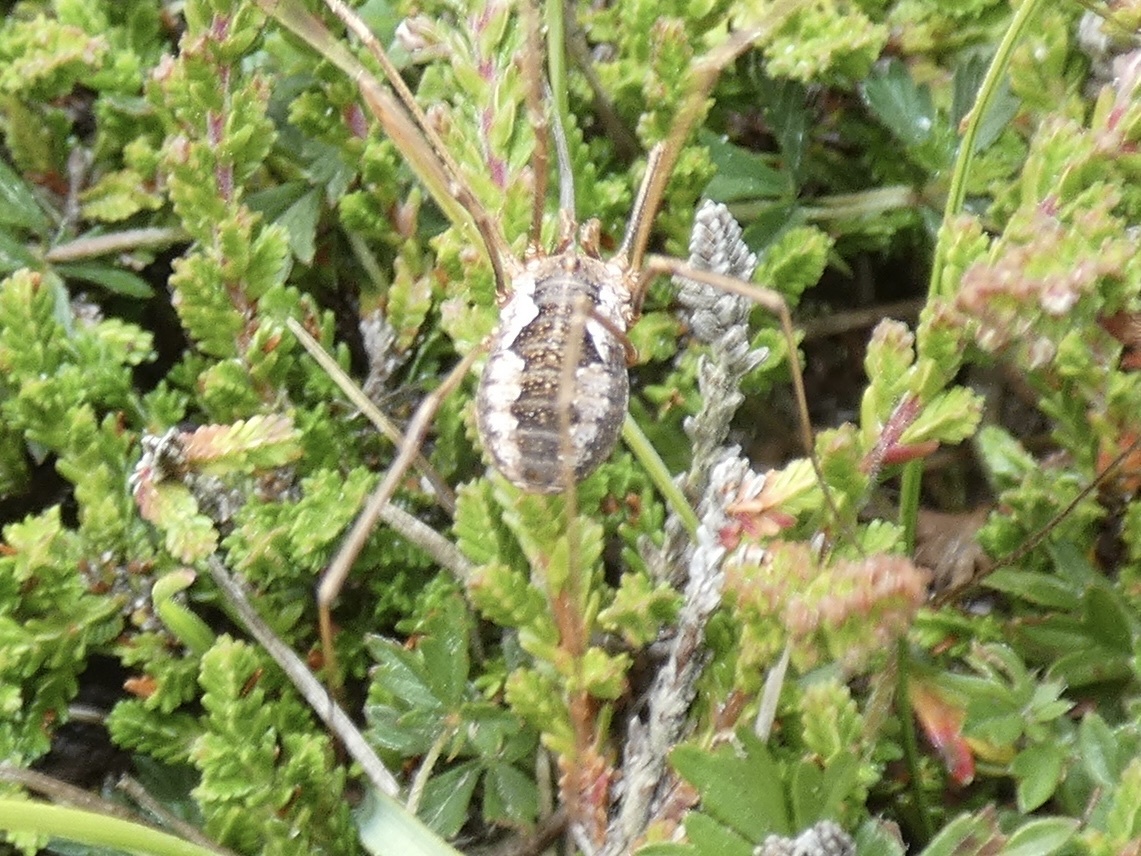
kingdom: Animalia
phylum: Arthropoda
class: Arachnida
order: Opiliones
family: Phalangiidae
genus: Phalangium
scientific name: Phalangium opilio
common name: Daddy longleg
